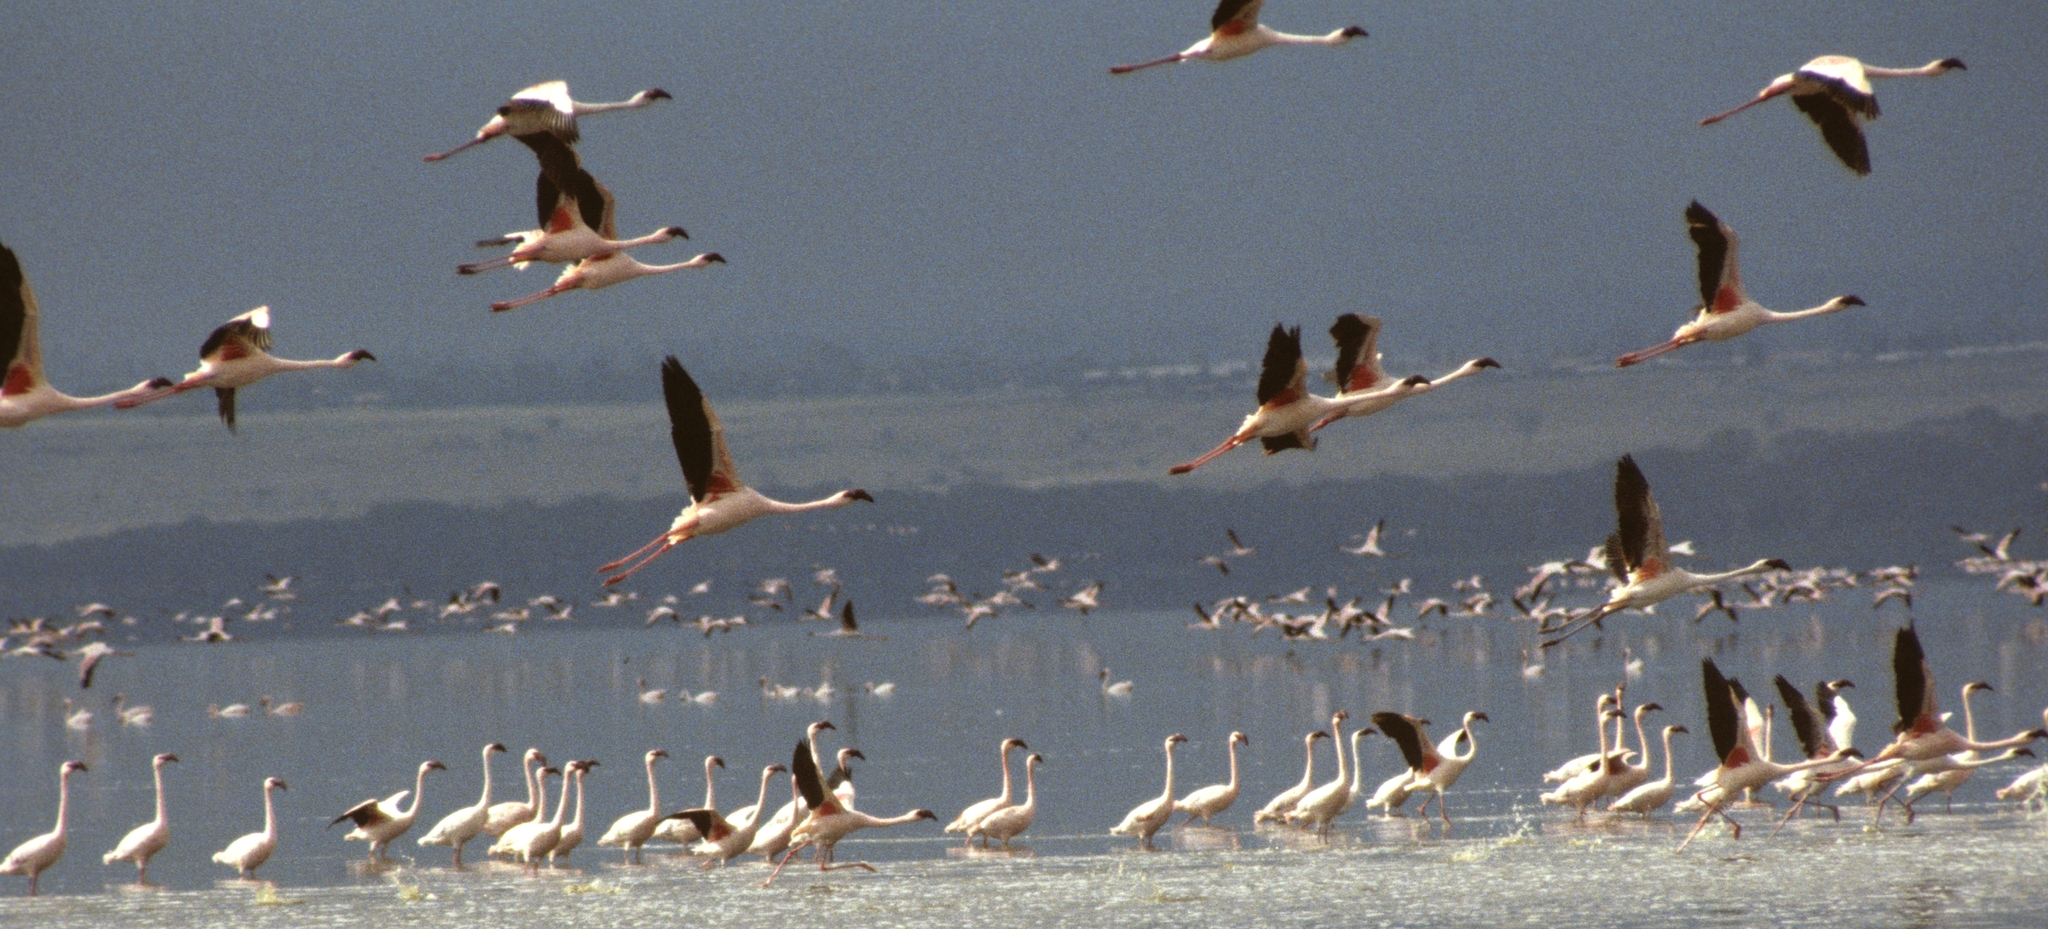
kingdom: Animalia
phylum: Chordata
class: Aves
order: Phoenicopteriformes
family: Phoenicopteridae
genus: Phoeniconaias
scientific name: Phoeniconaias minor
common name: Lesser flamingo
